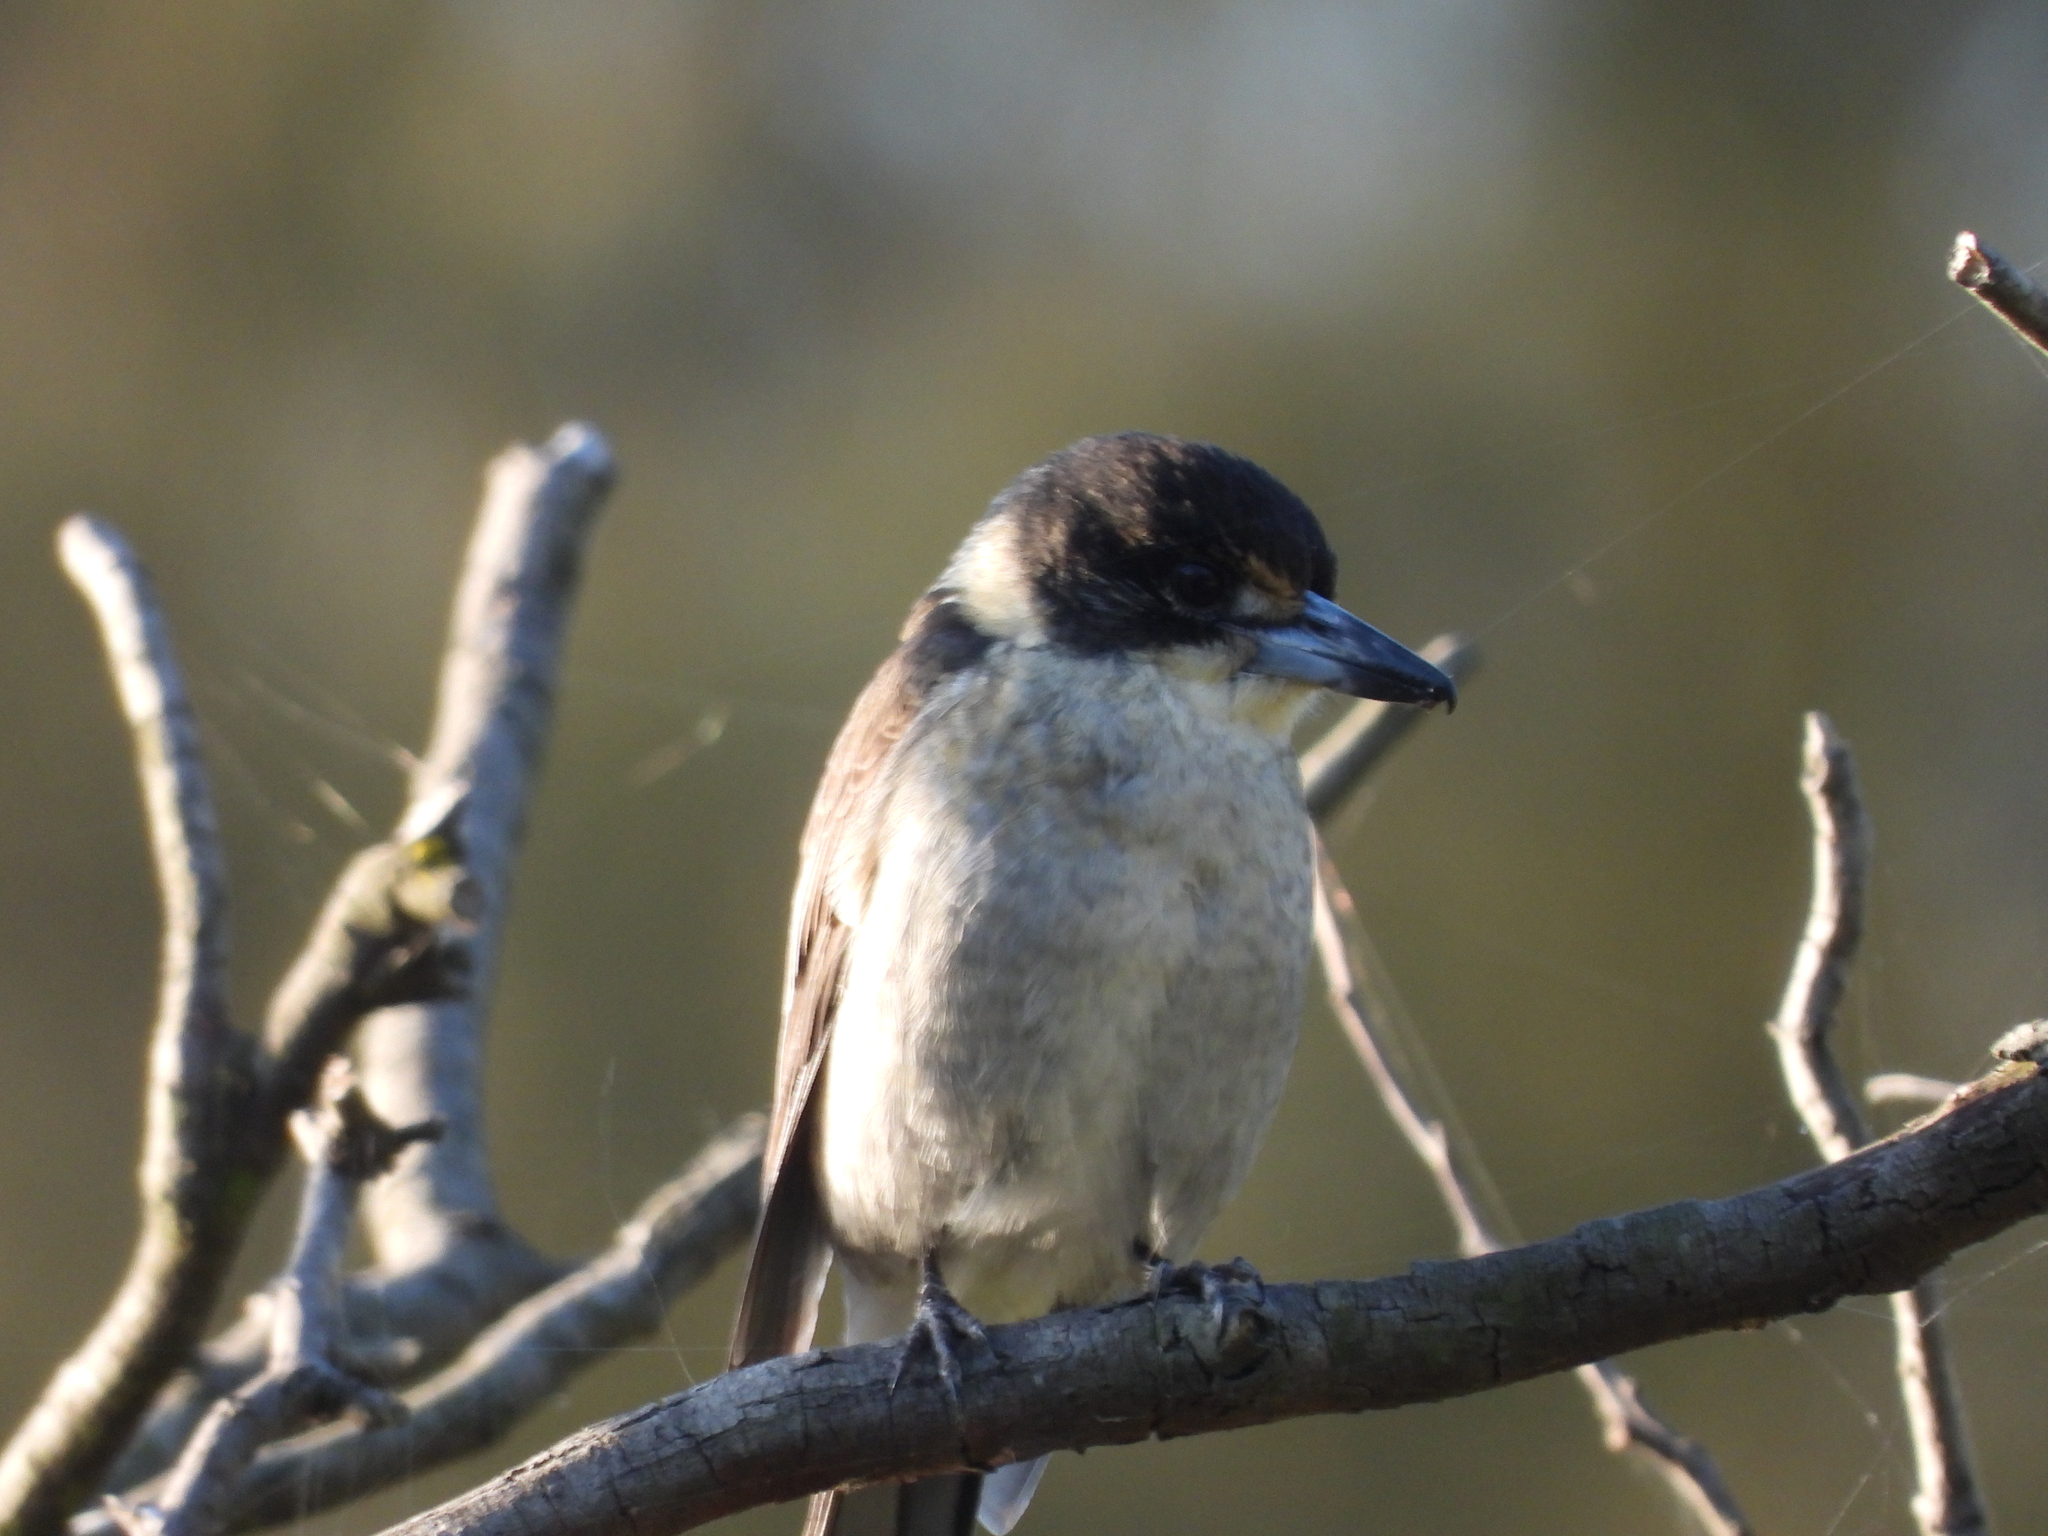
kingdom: Animalia
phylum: Chordata
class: Aves
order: Passeriformes
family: Cracticidae
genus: Cracticus
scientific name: Cracticus torquatus
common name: Grey butcherbird
